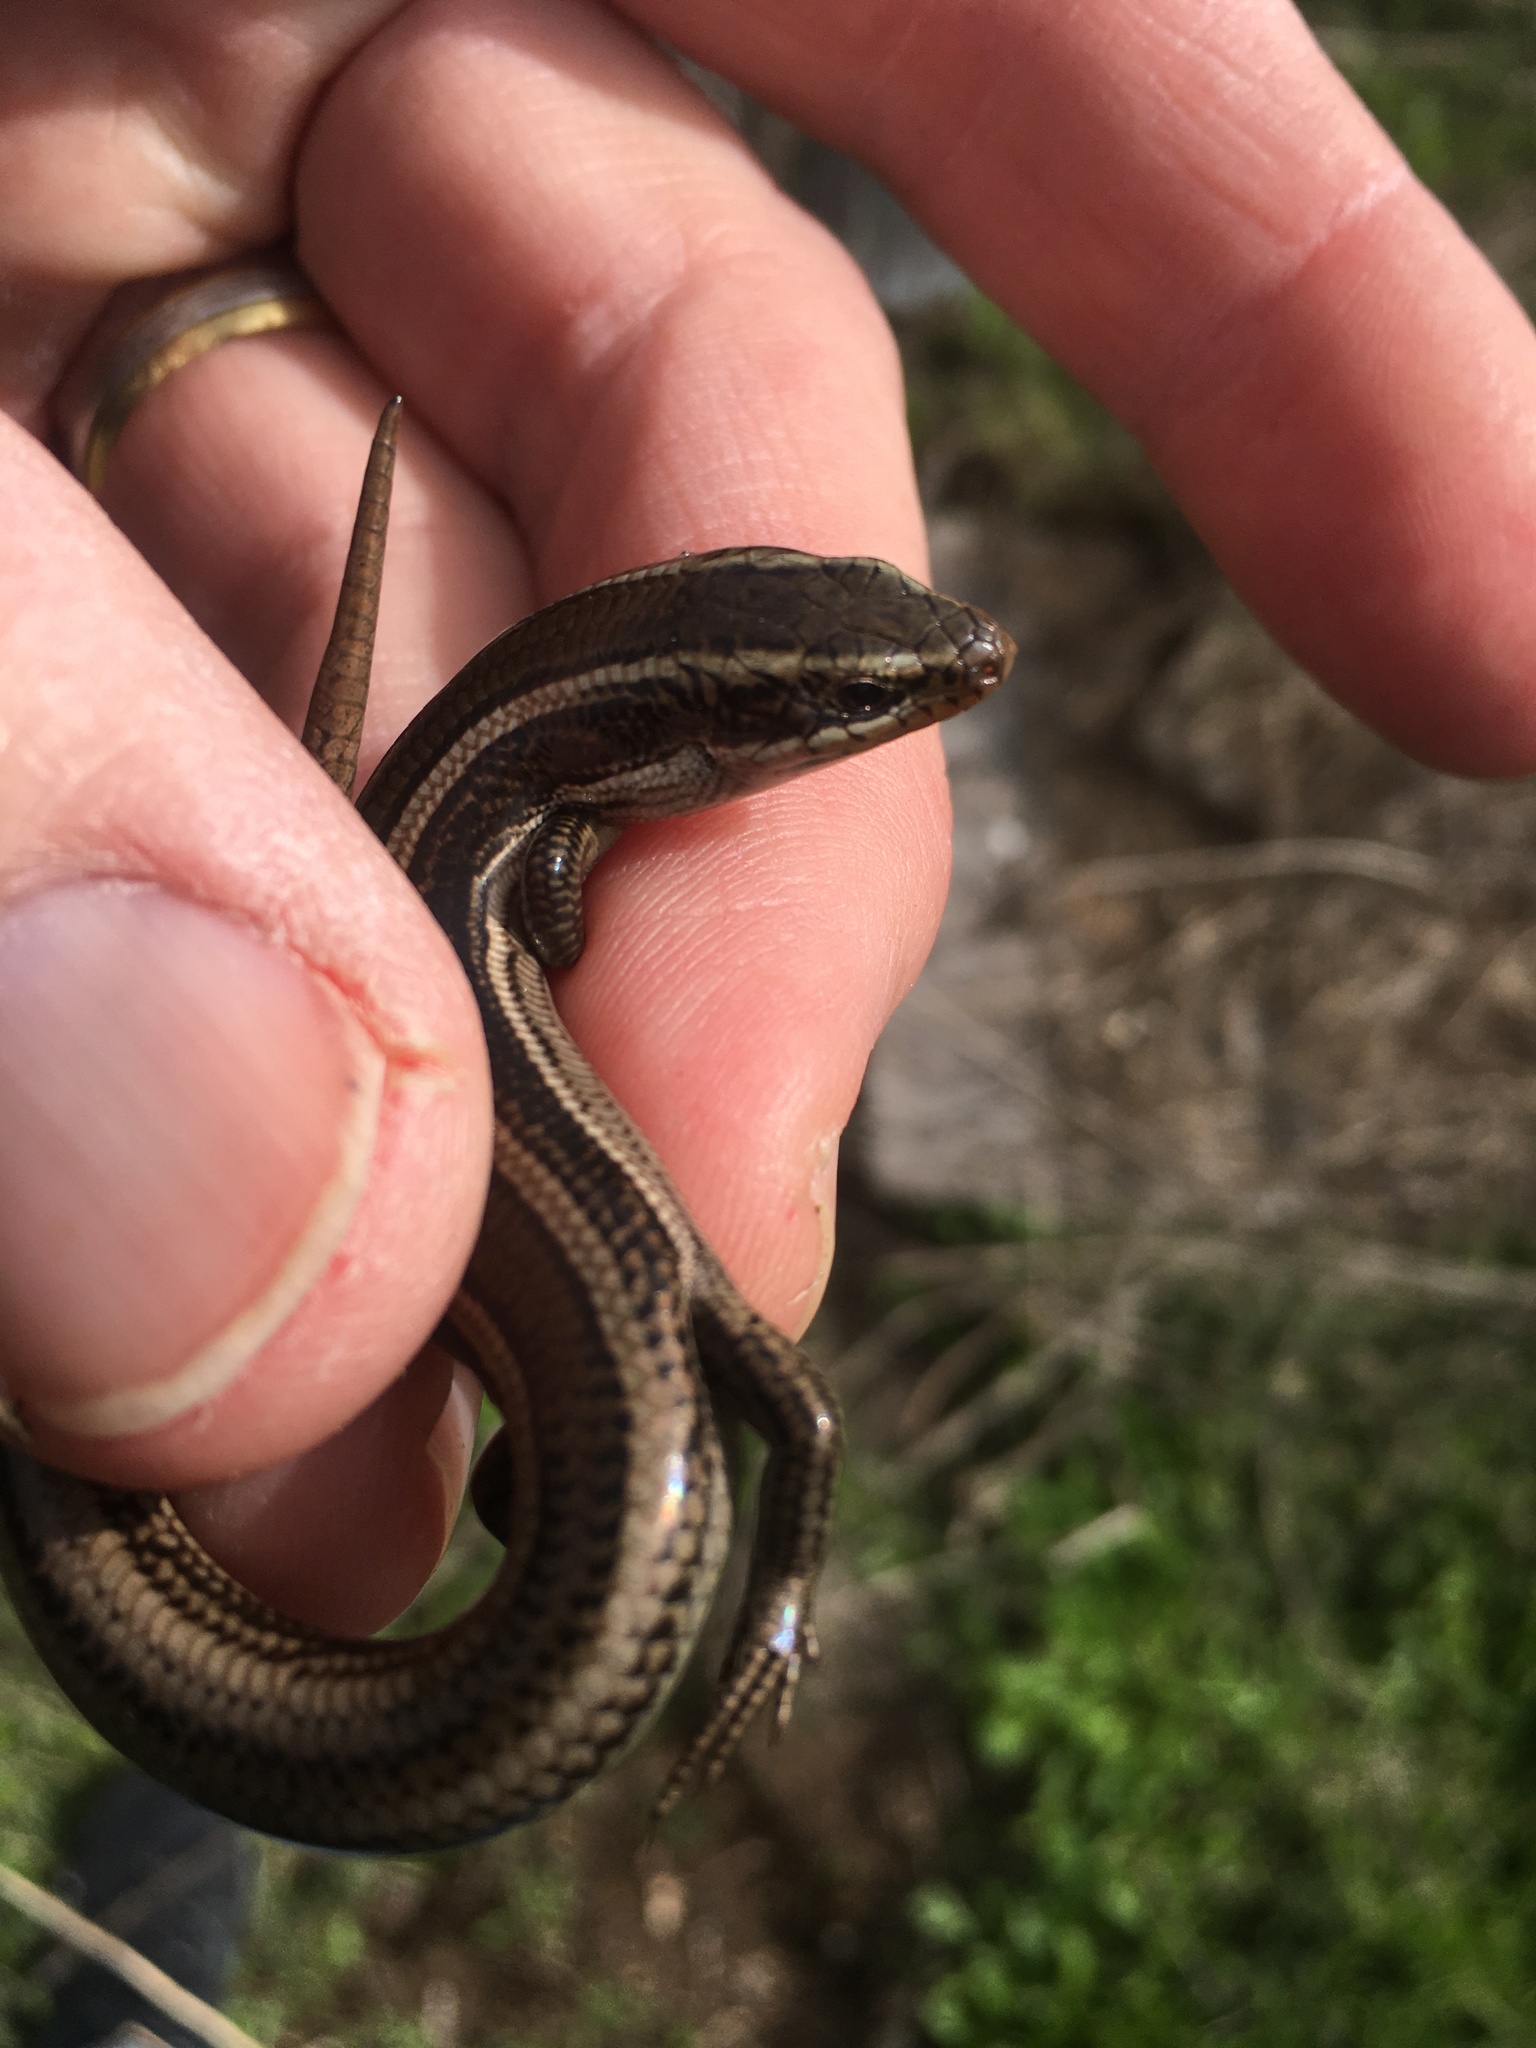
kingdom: Animalia
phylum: Chordata
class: Squamata
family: Scincidae
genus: Plestiodon
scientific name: Plestiodon skiltonianus
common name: Coronado island skink [interparietalis]
